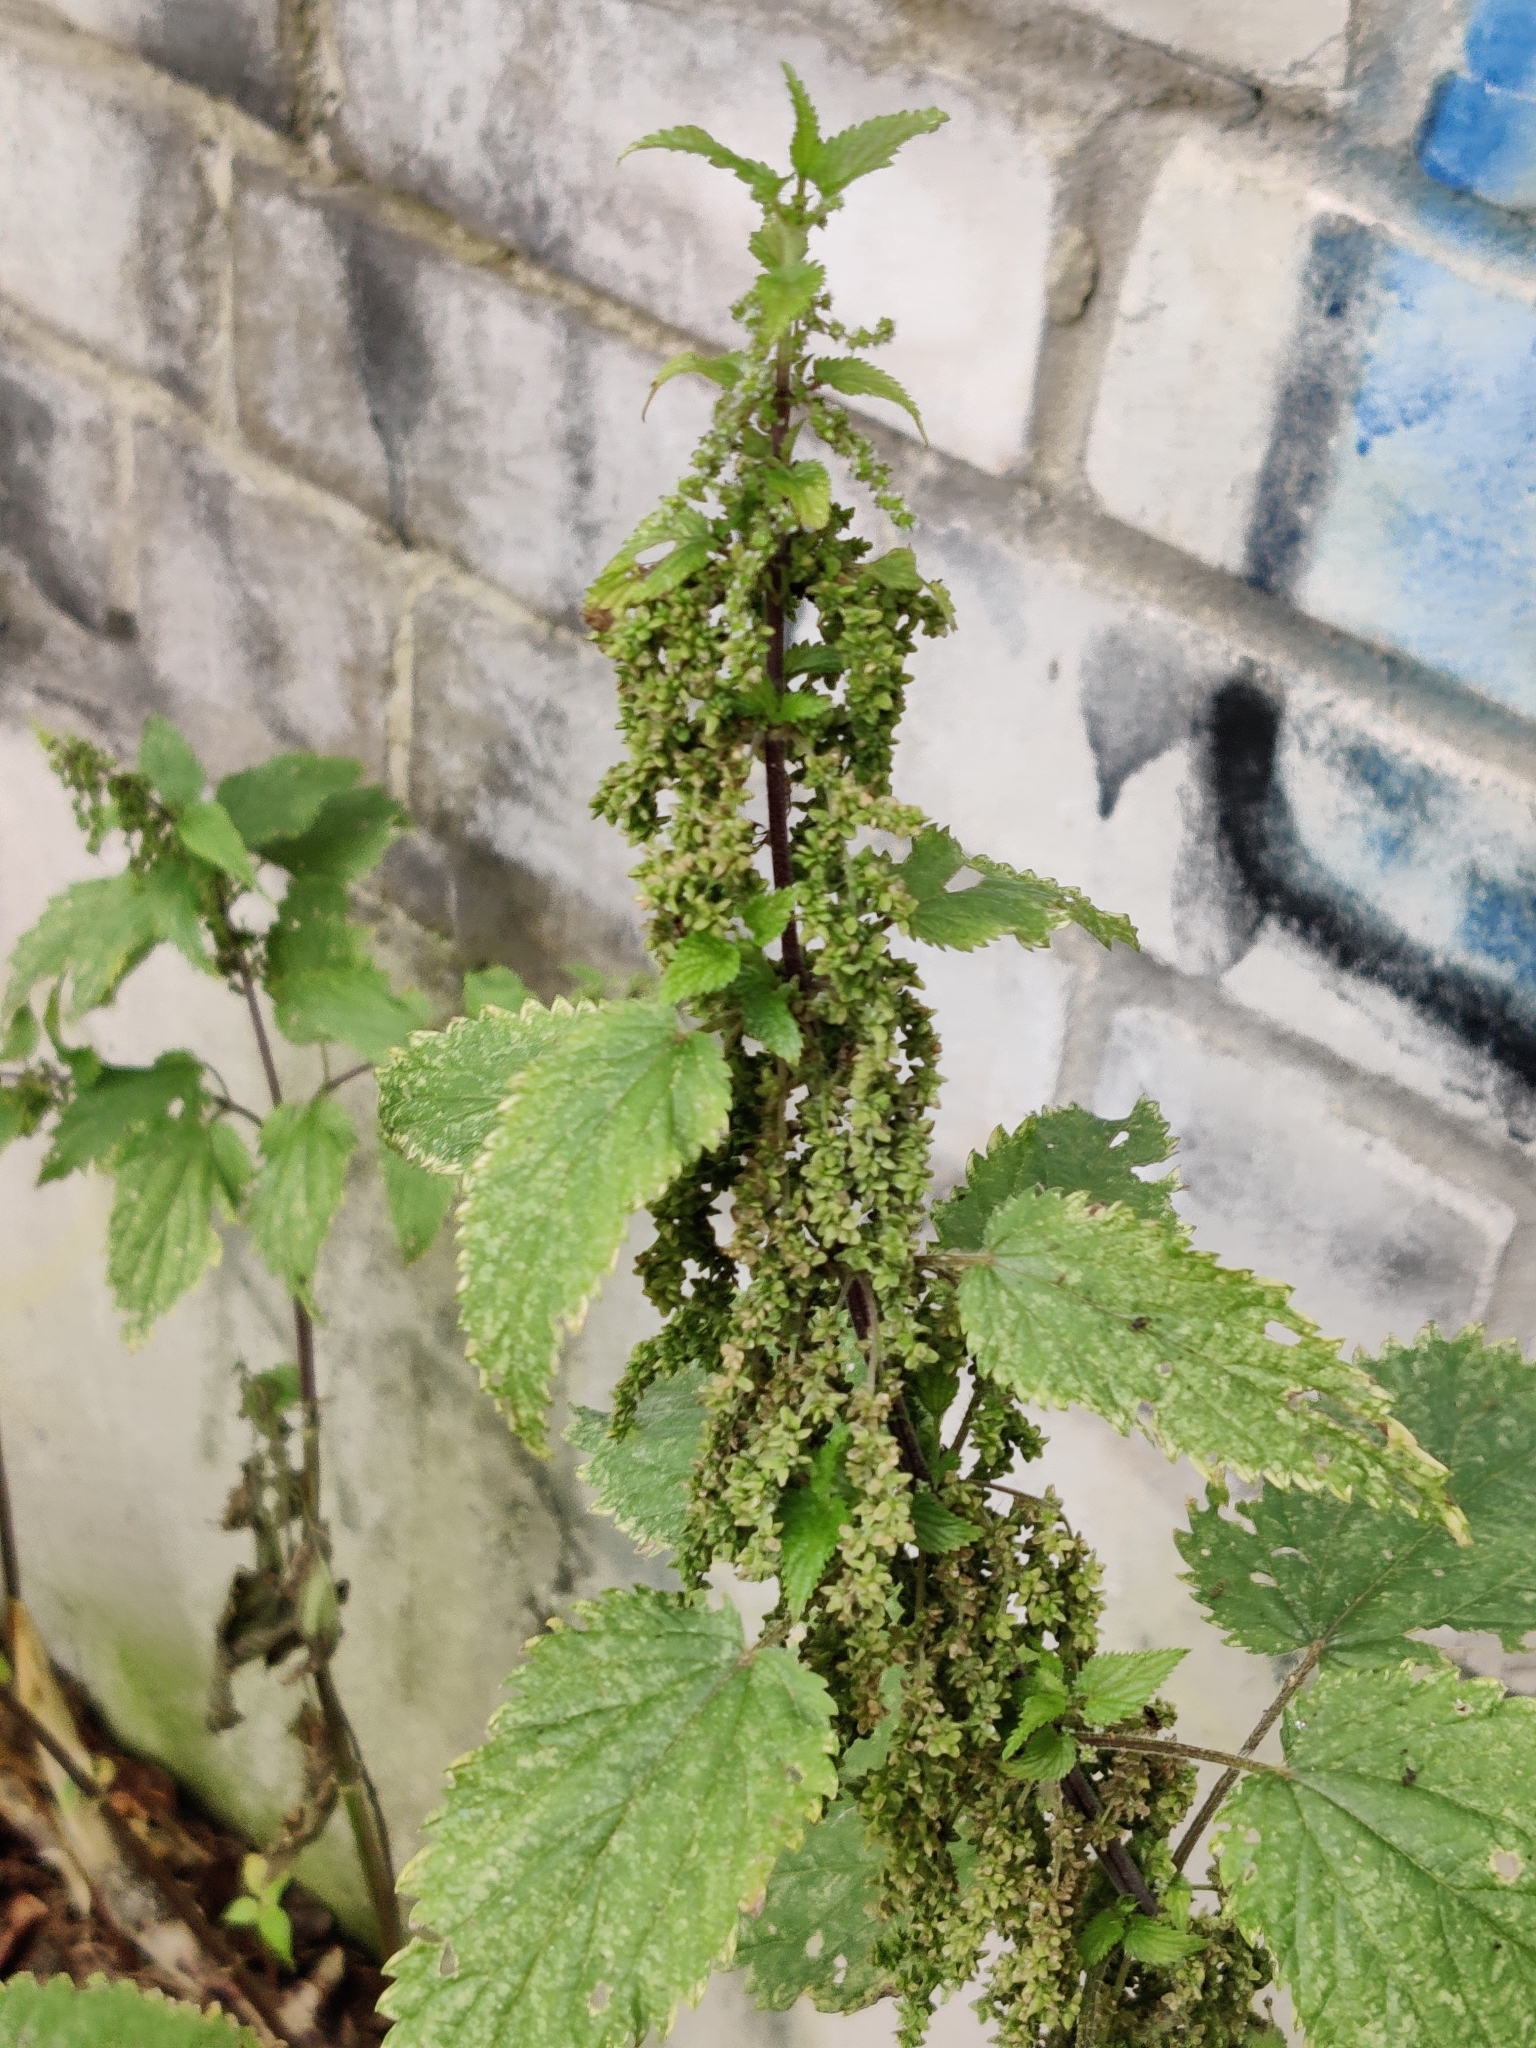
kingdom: Plantae
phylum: Tracheophyta
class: Magnoliopsida
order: Rosales
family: Urticaceae
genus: Urtica
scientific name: Urtica dioica
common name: Common nettle
